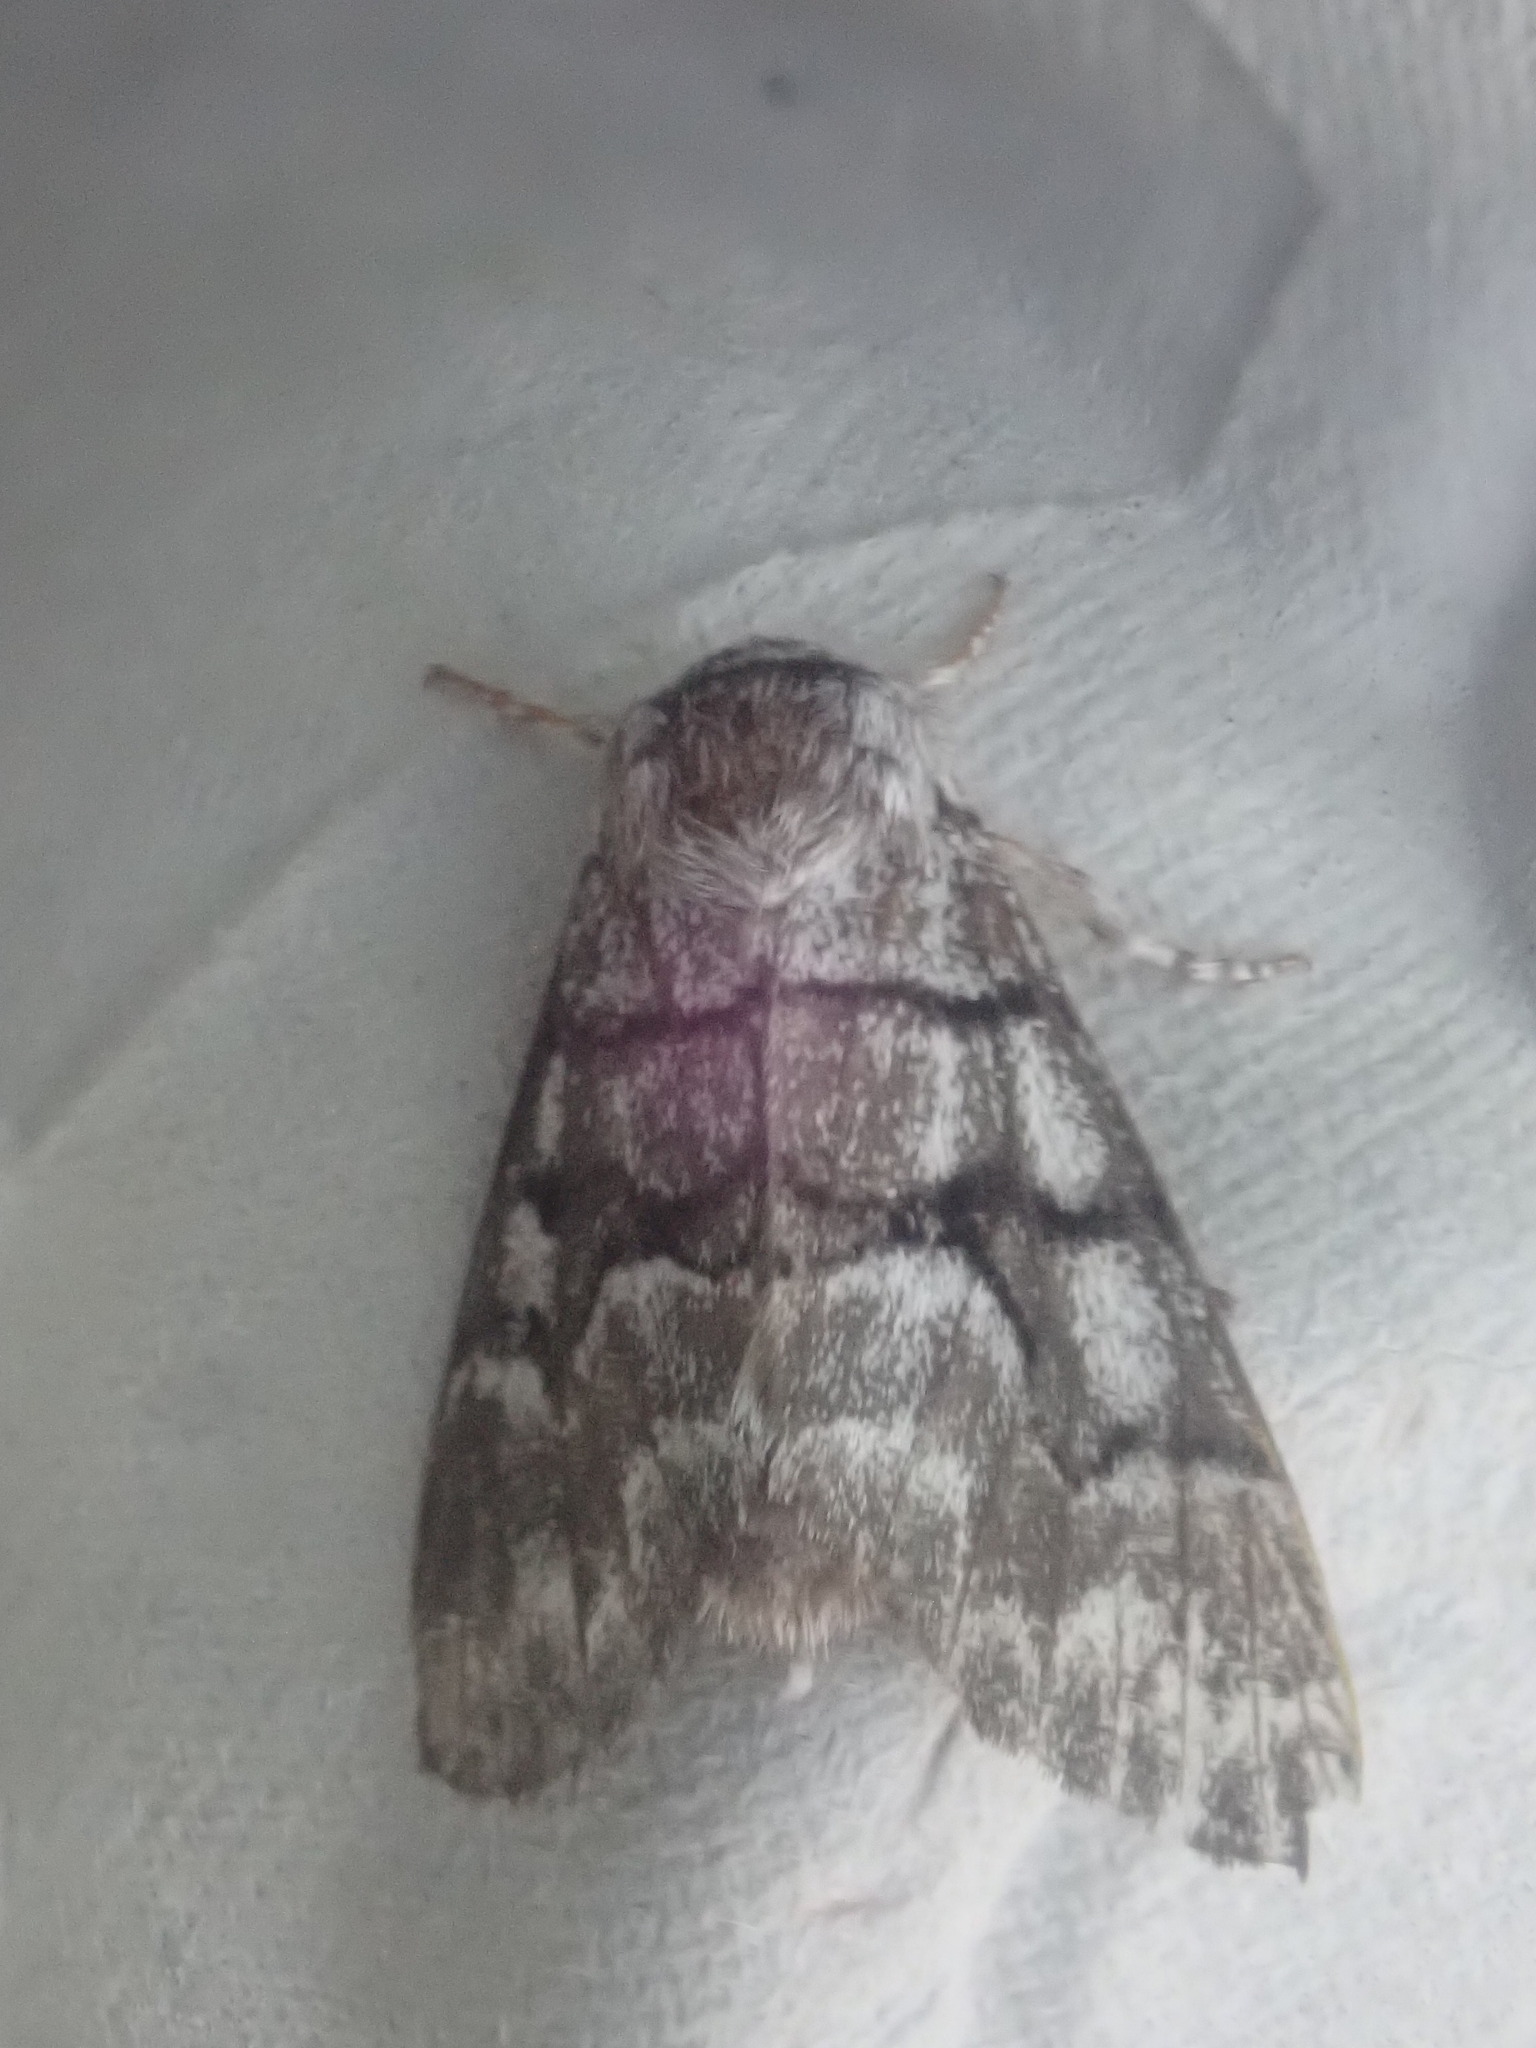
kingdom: Animalia
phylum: Arthropoda
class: Insecta
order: Lepidoptera
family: Noctuidae
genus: Panthea
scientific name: Panthea furcilla
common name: Eastern panthea moth
